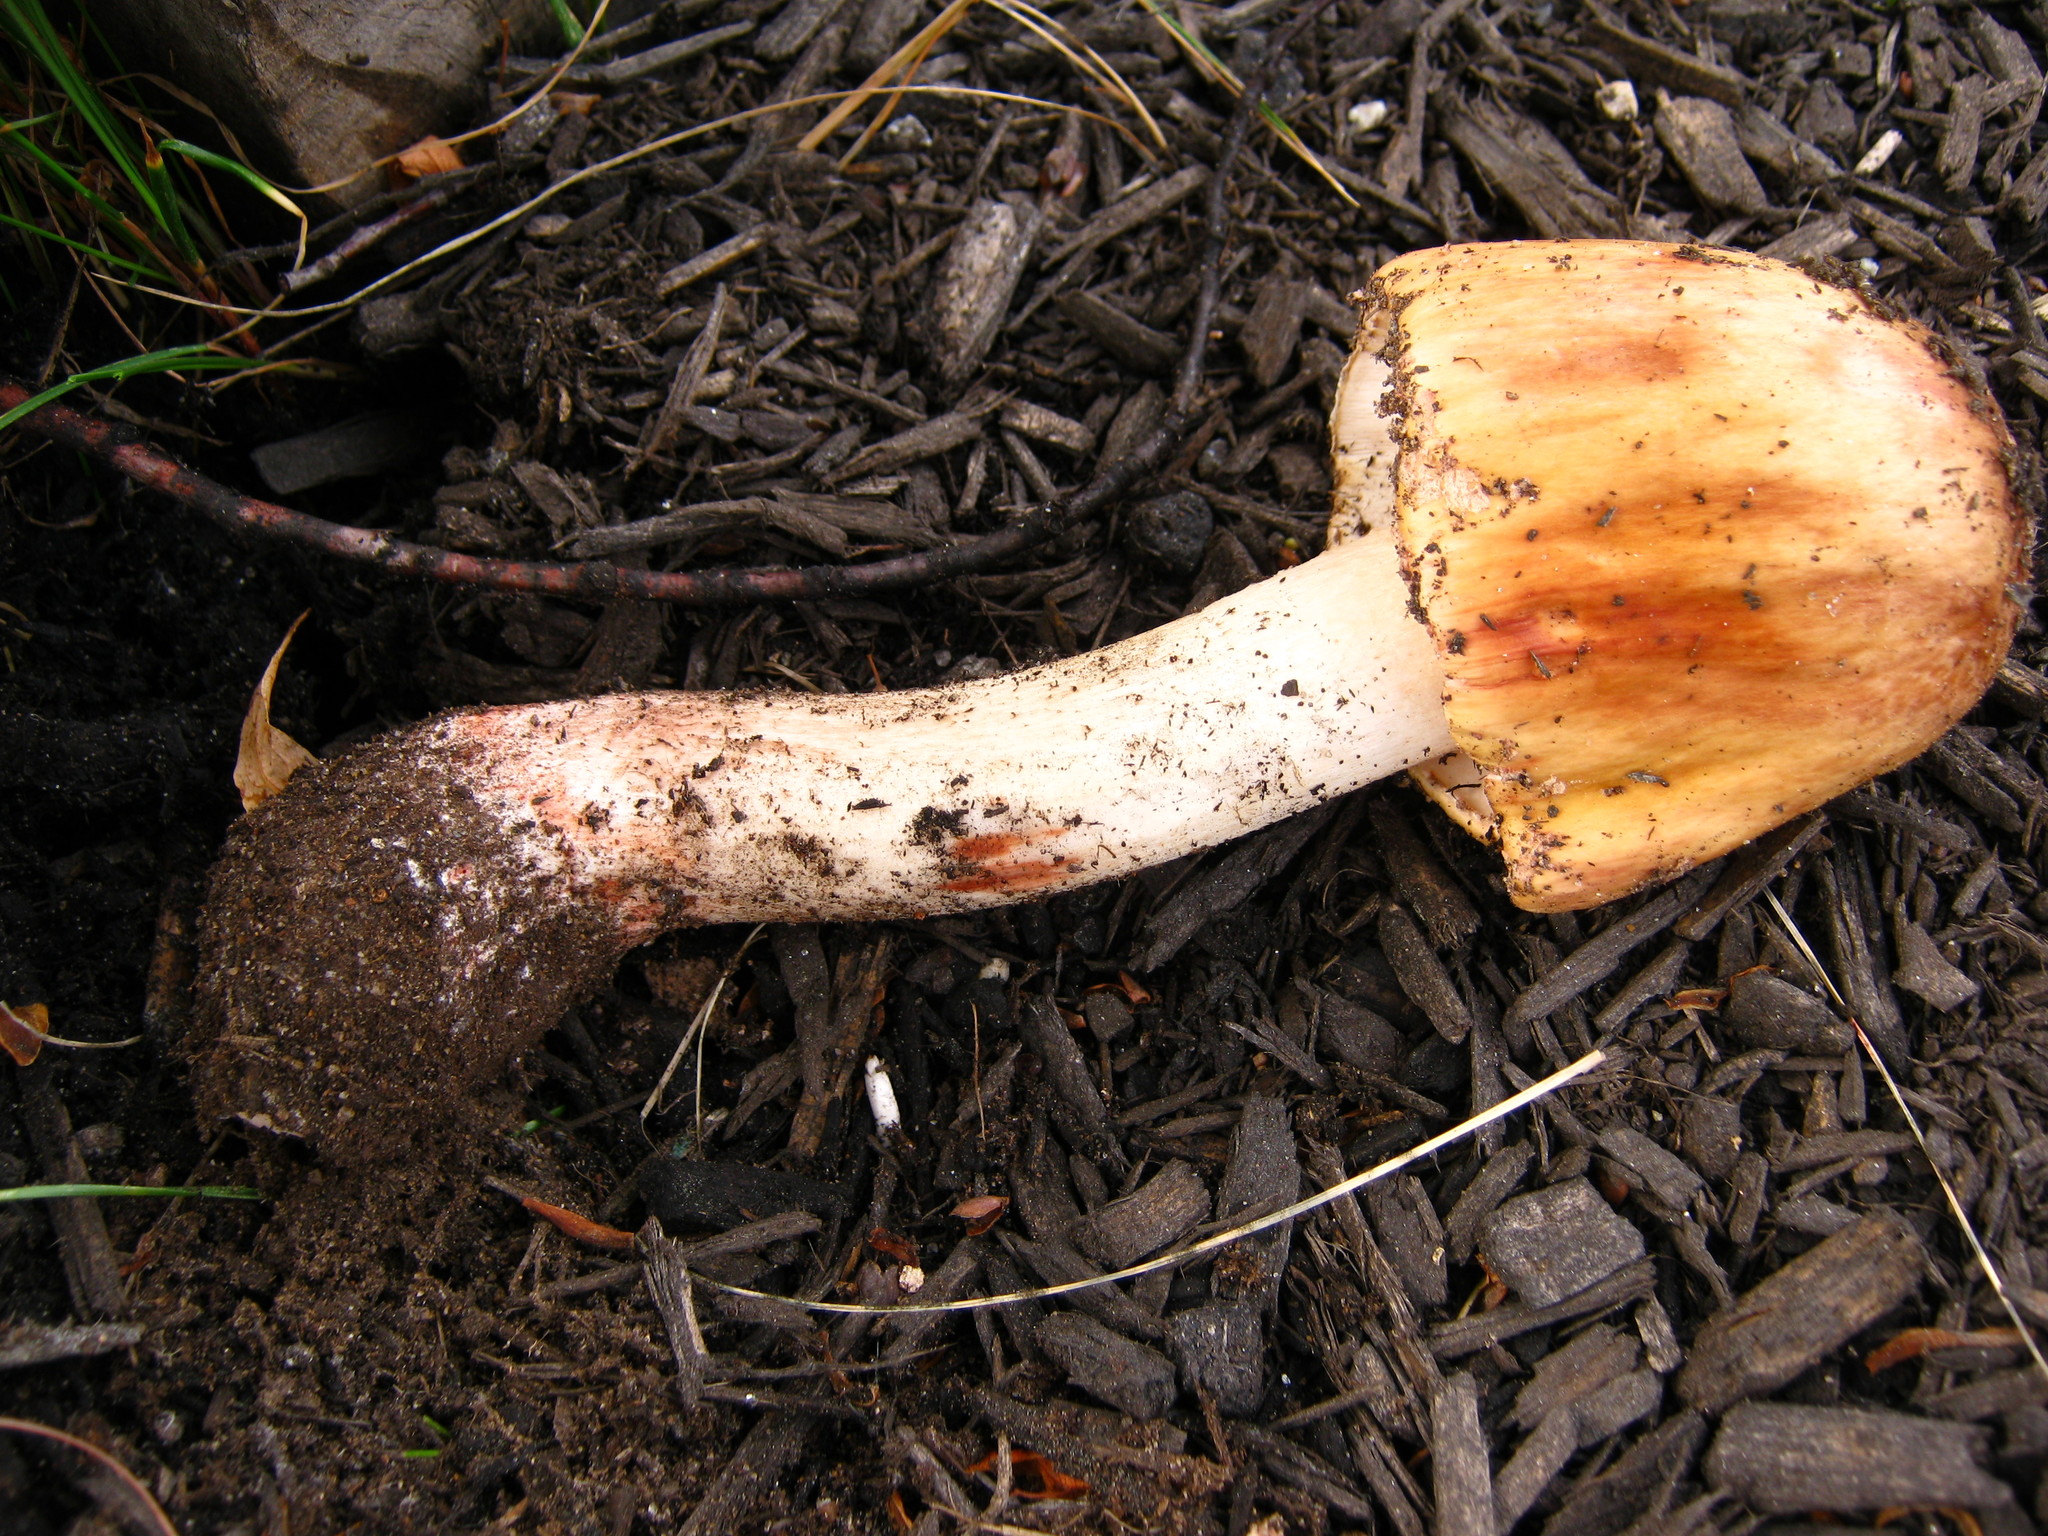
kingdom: Fungi
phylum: Basidiomycota
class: Agaricomycetes
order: Agaricales
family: Amanitaceae
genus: Amanita
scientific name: Amanita rubescens
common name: Blusher
